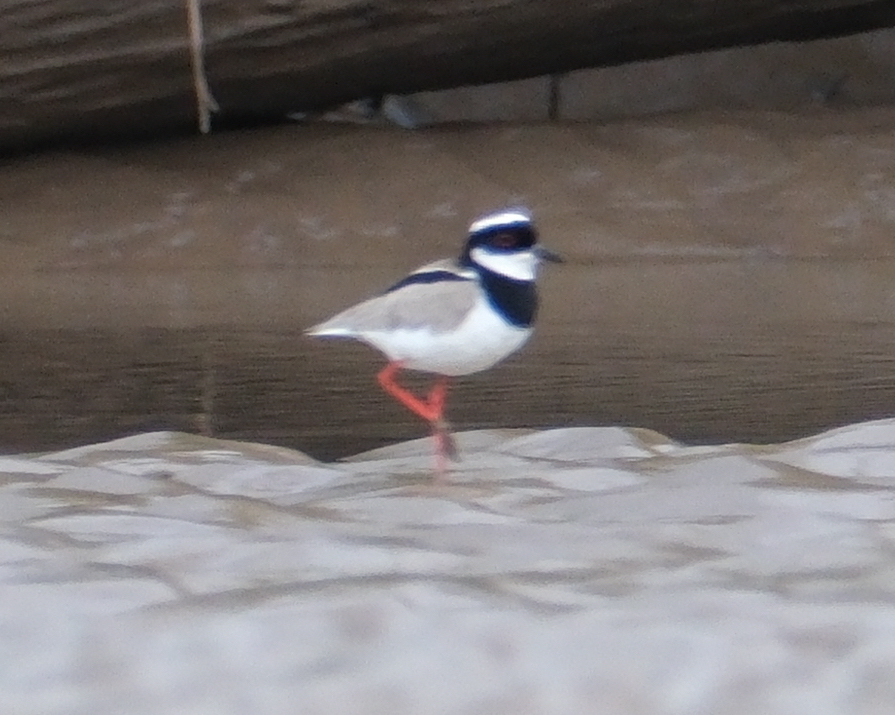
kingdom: Animalia
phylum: Chordata
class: Aves
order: Charadriiformes
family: Charadriidae
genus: Hoploxypterus
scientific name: Hoploxypterus cayanus
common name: Pied plover
